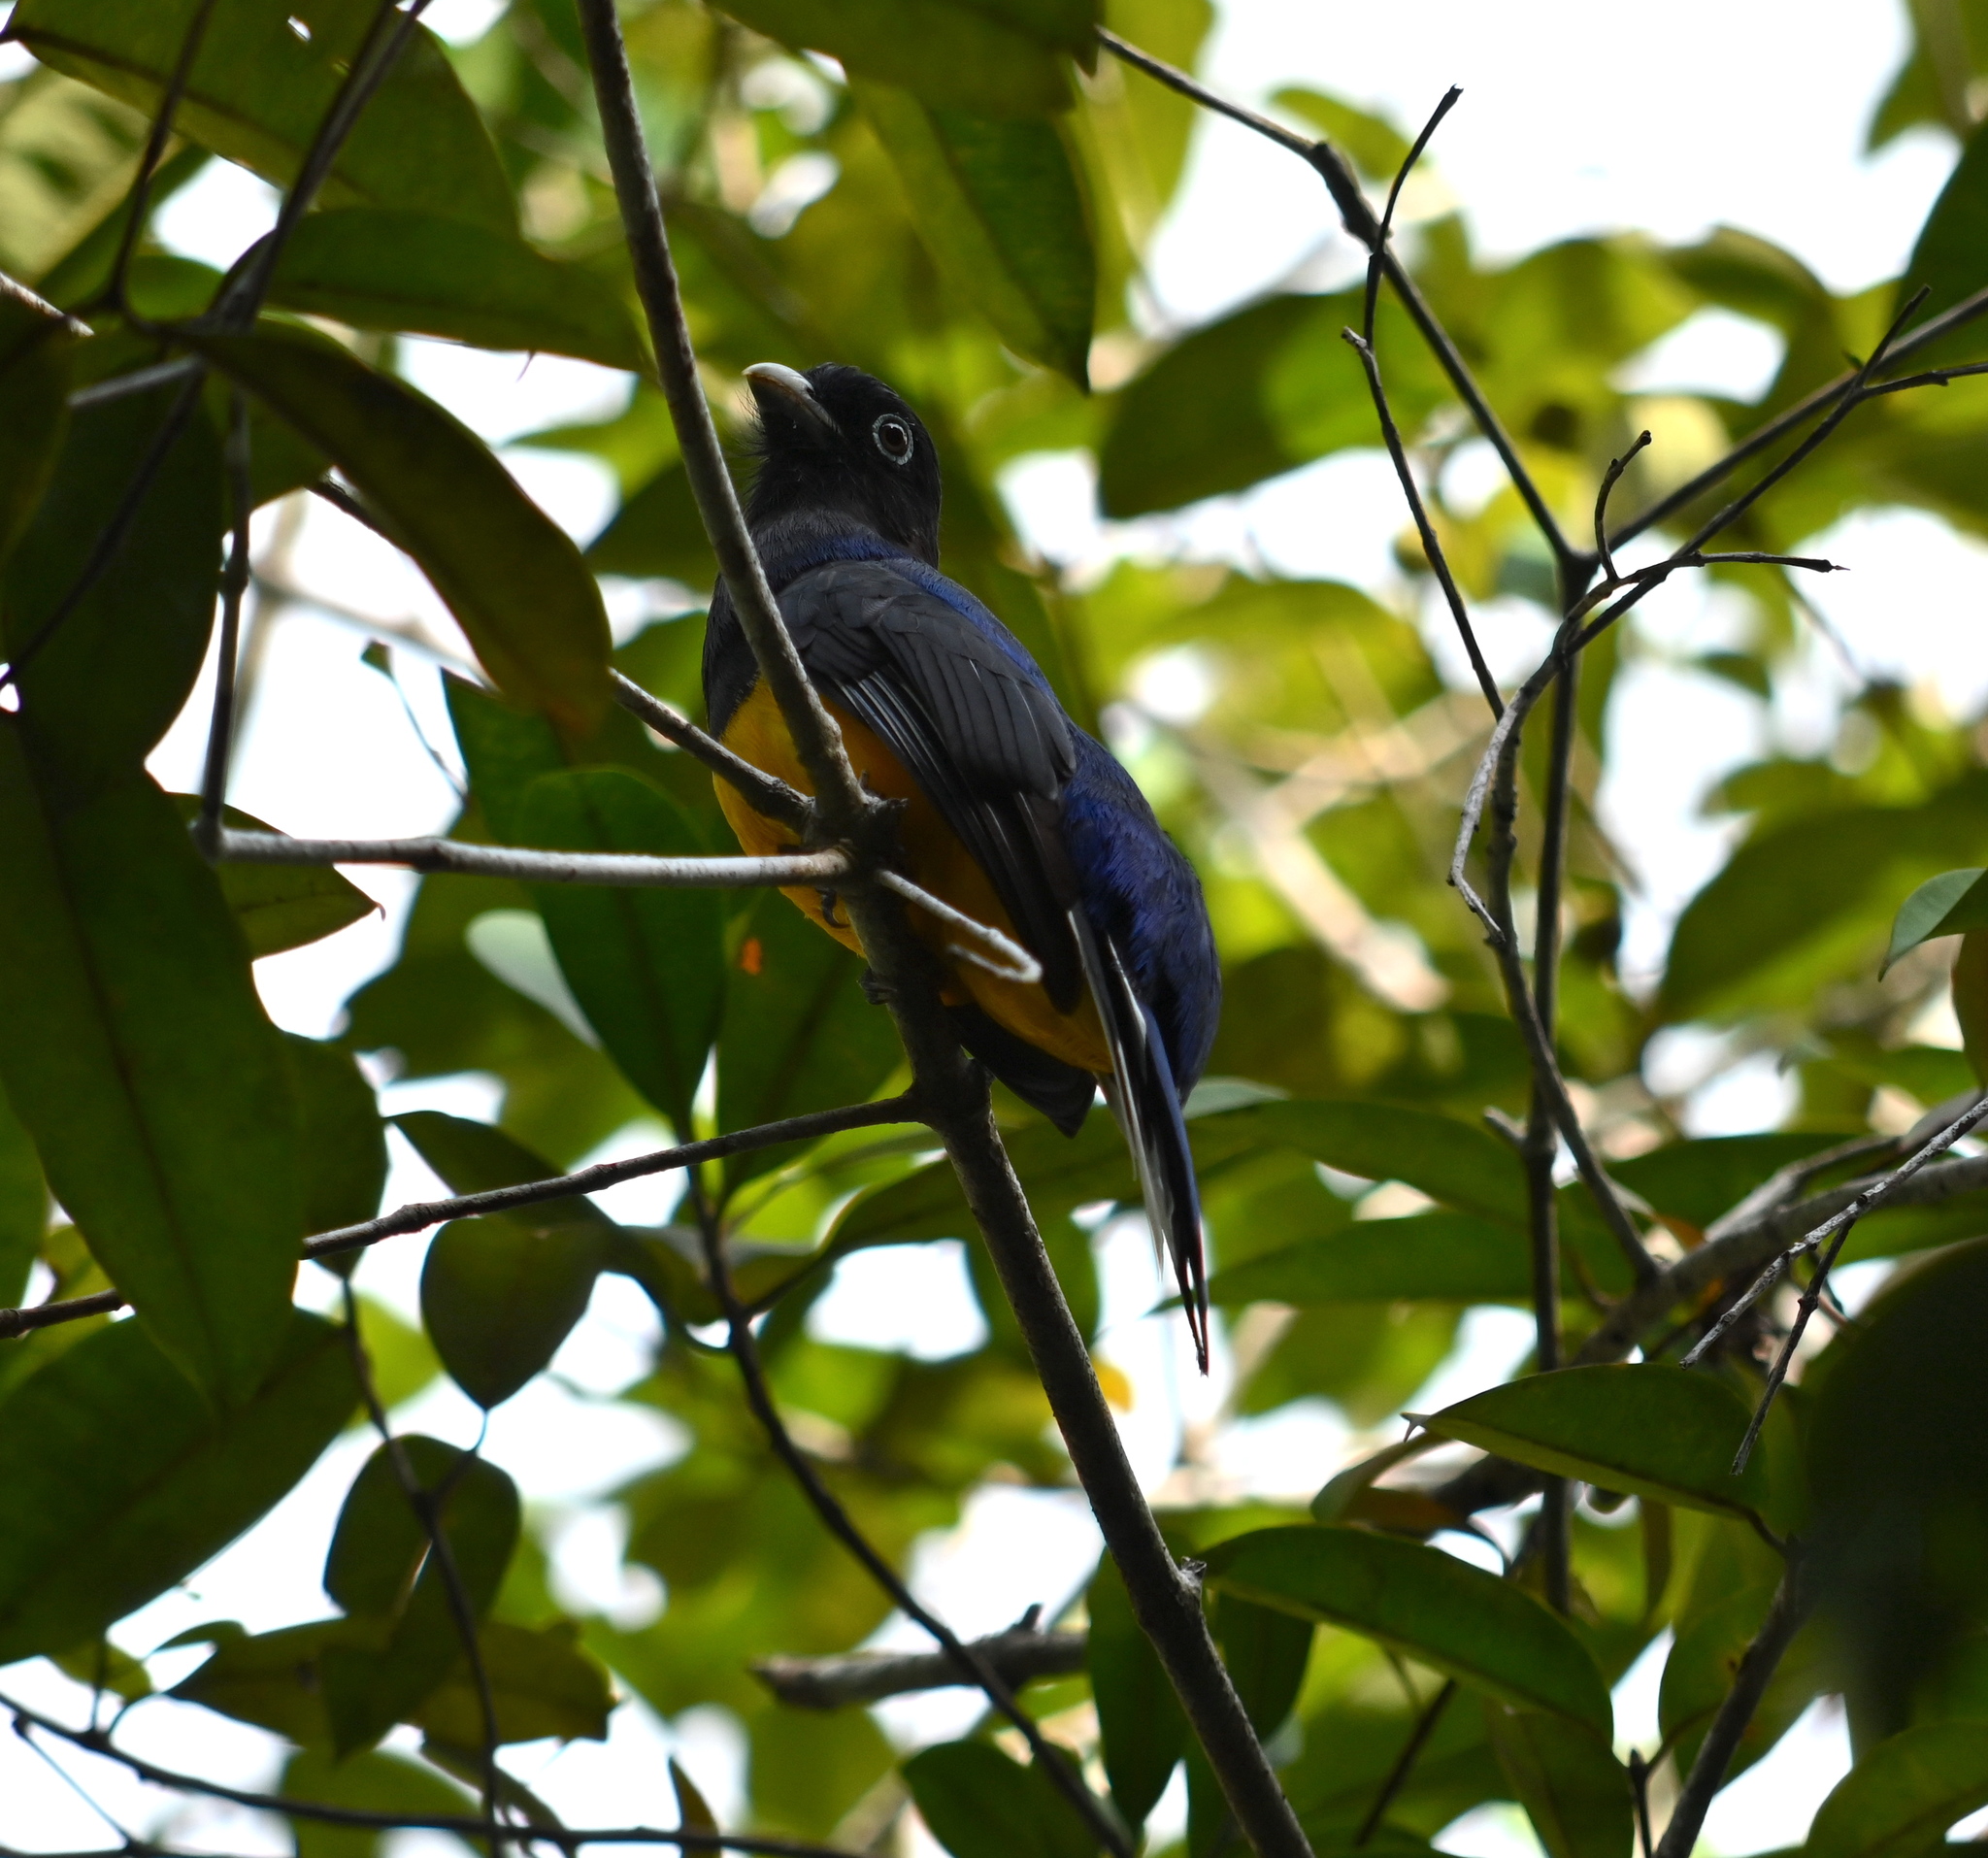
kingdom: Animalia
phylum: Chordata
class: Aves
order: Trogoniformes
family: Trogonidae
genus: Trogon
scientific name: Trogon viridis
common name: Green-backed trogon
